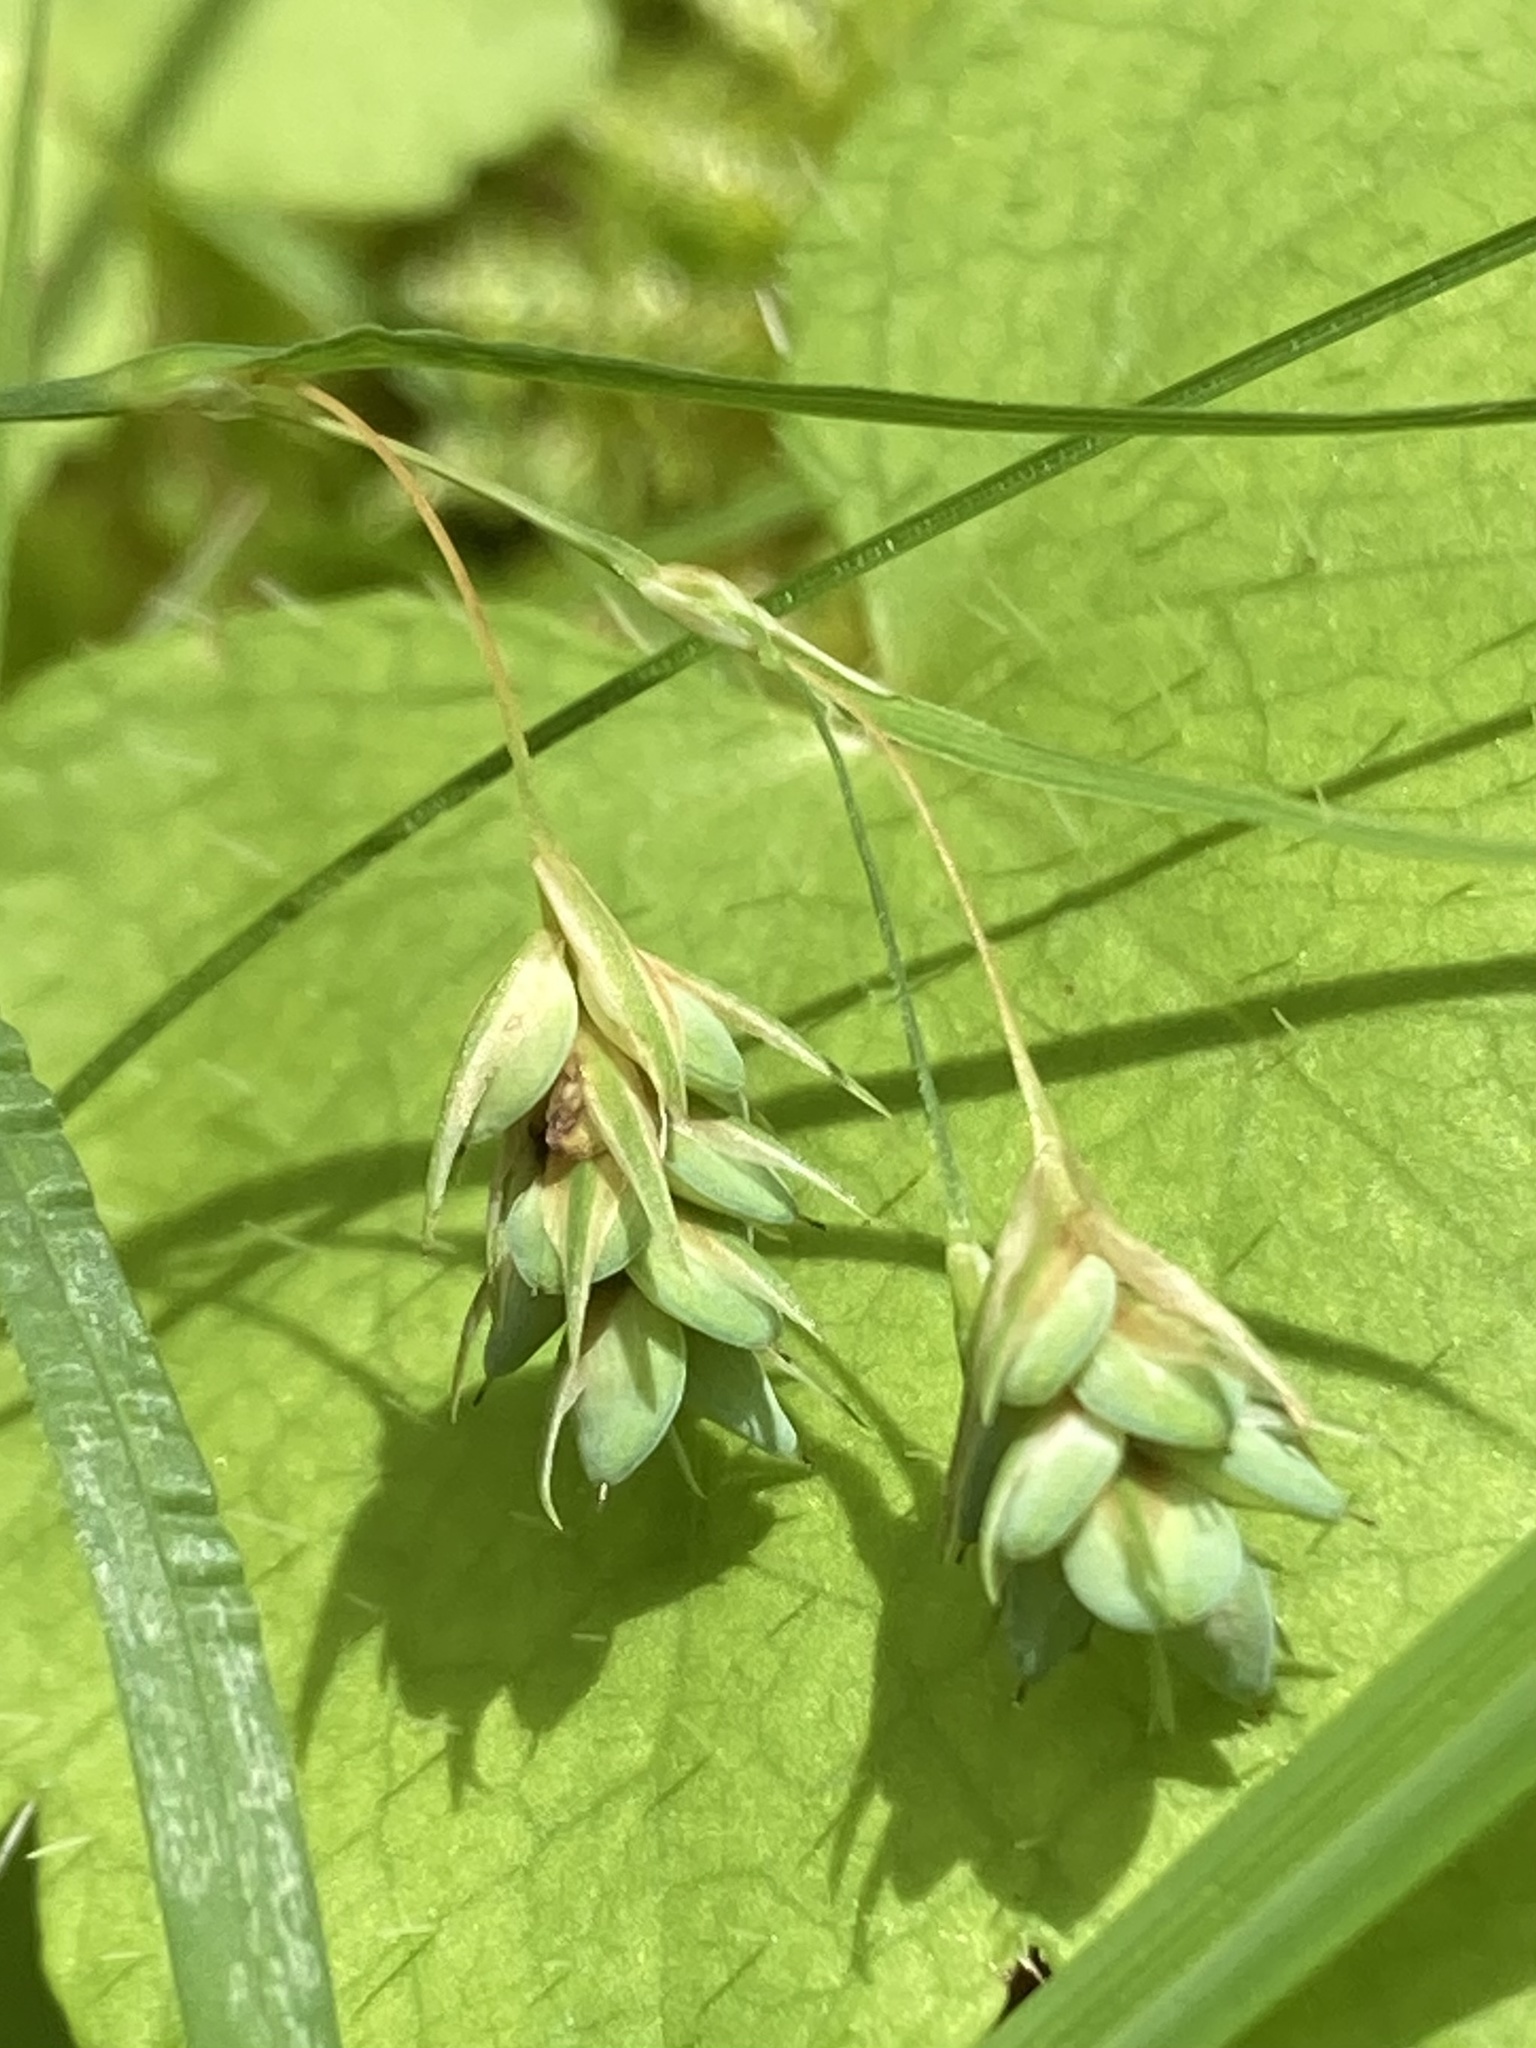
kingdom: Plantae
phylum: Tracheophyta
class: Liliopsida
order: Poales
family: Cyperaceae
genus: Carex
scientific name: Carex magellanica
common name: Bog sedge
